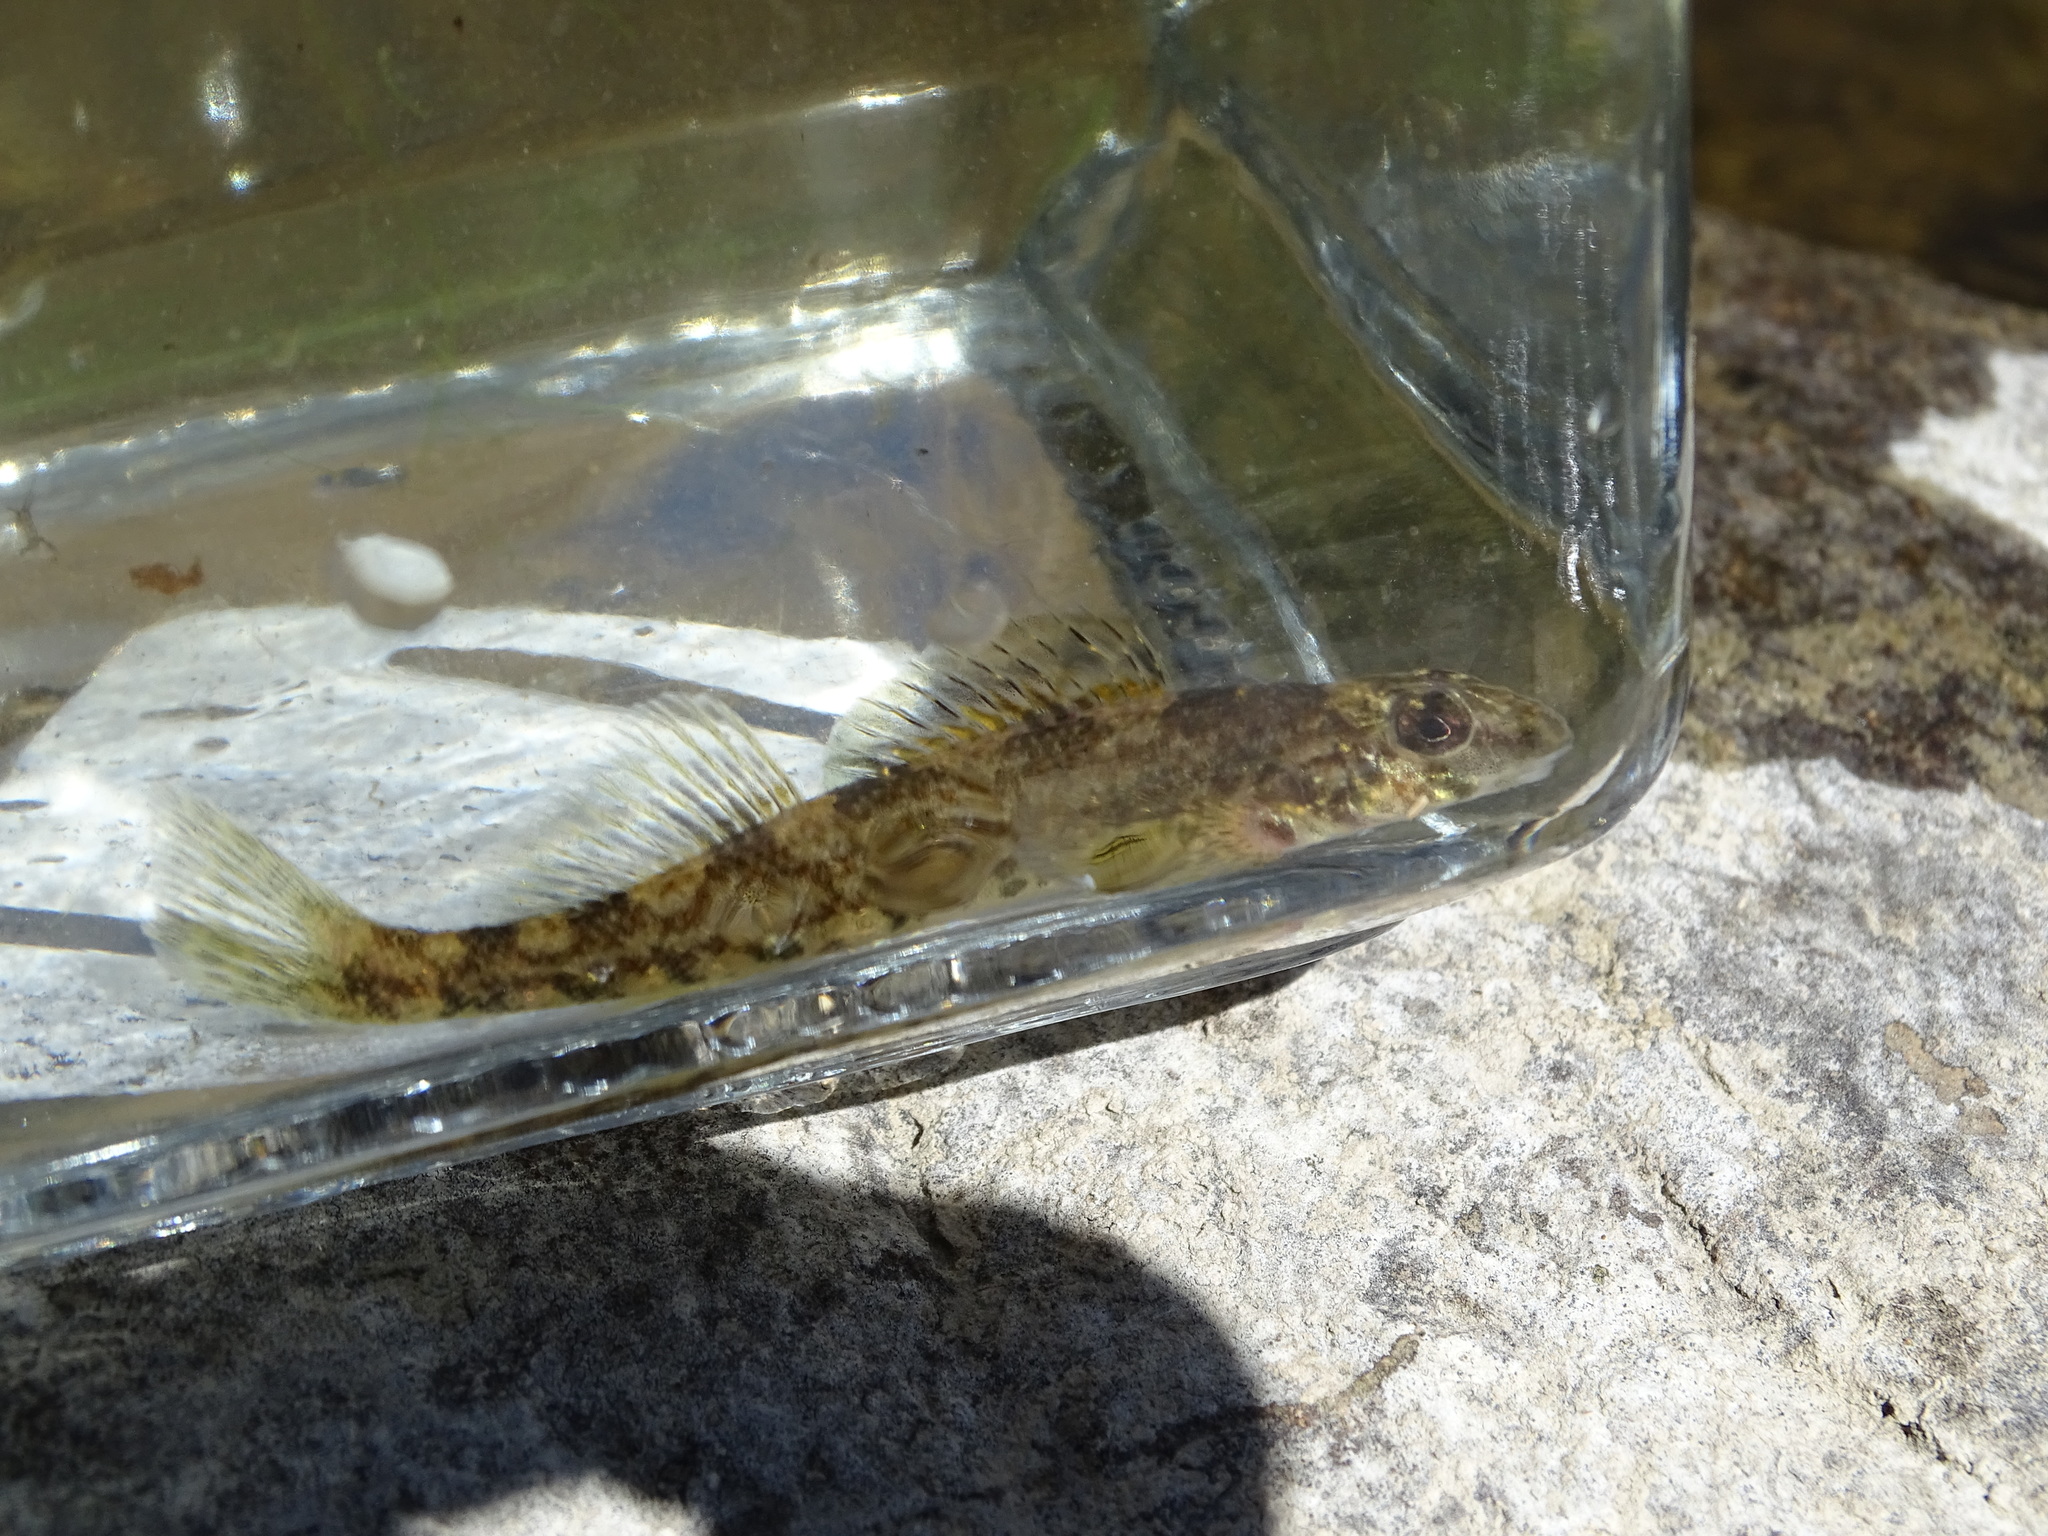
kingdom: Animalia
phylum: Chordata
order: Perciformes
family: Percidae
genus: Etheostoma
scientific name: Etheostoma blennioides
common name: Greenside darter
